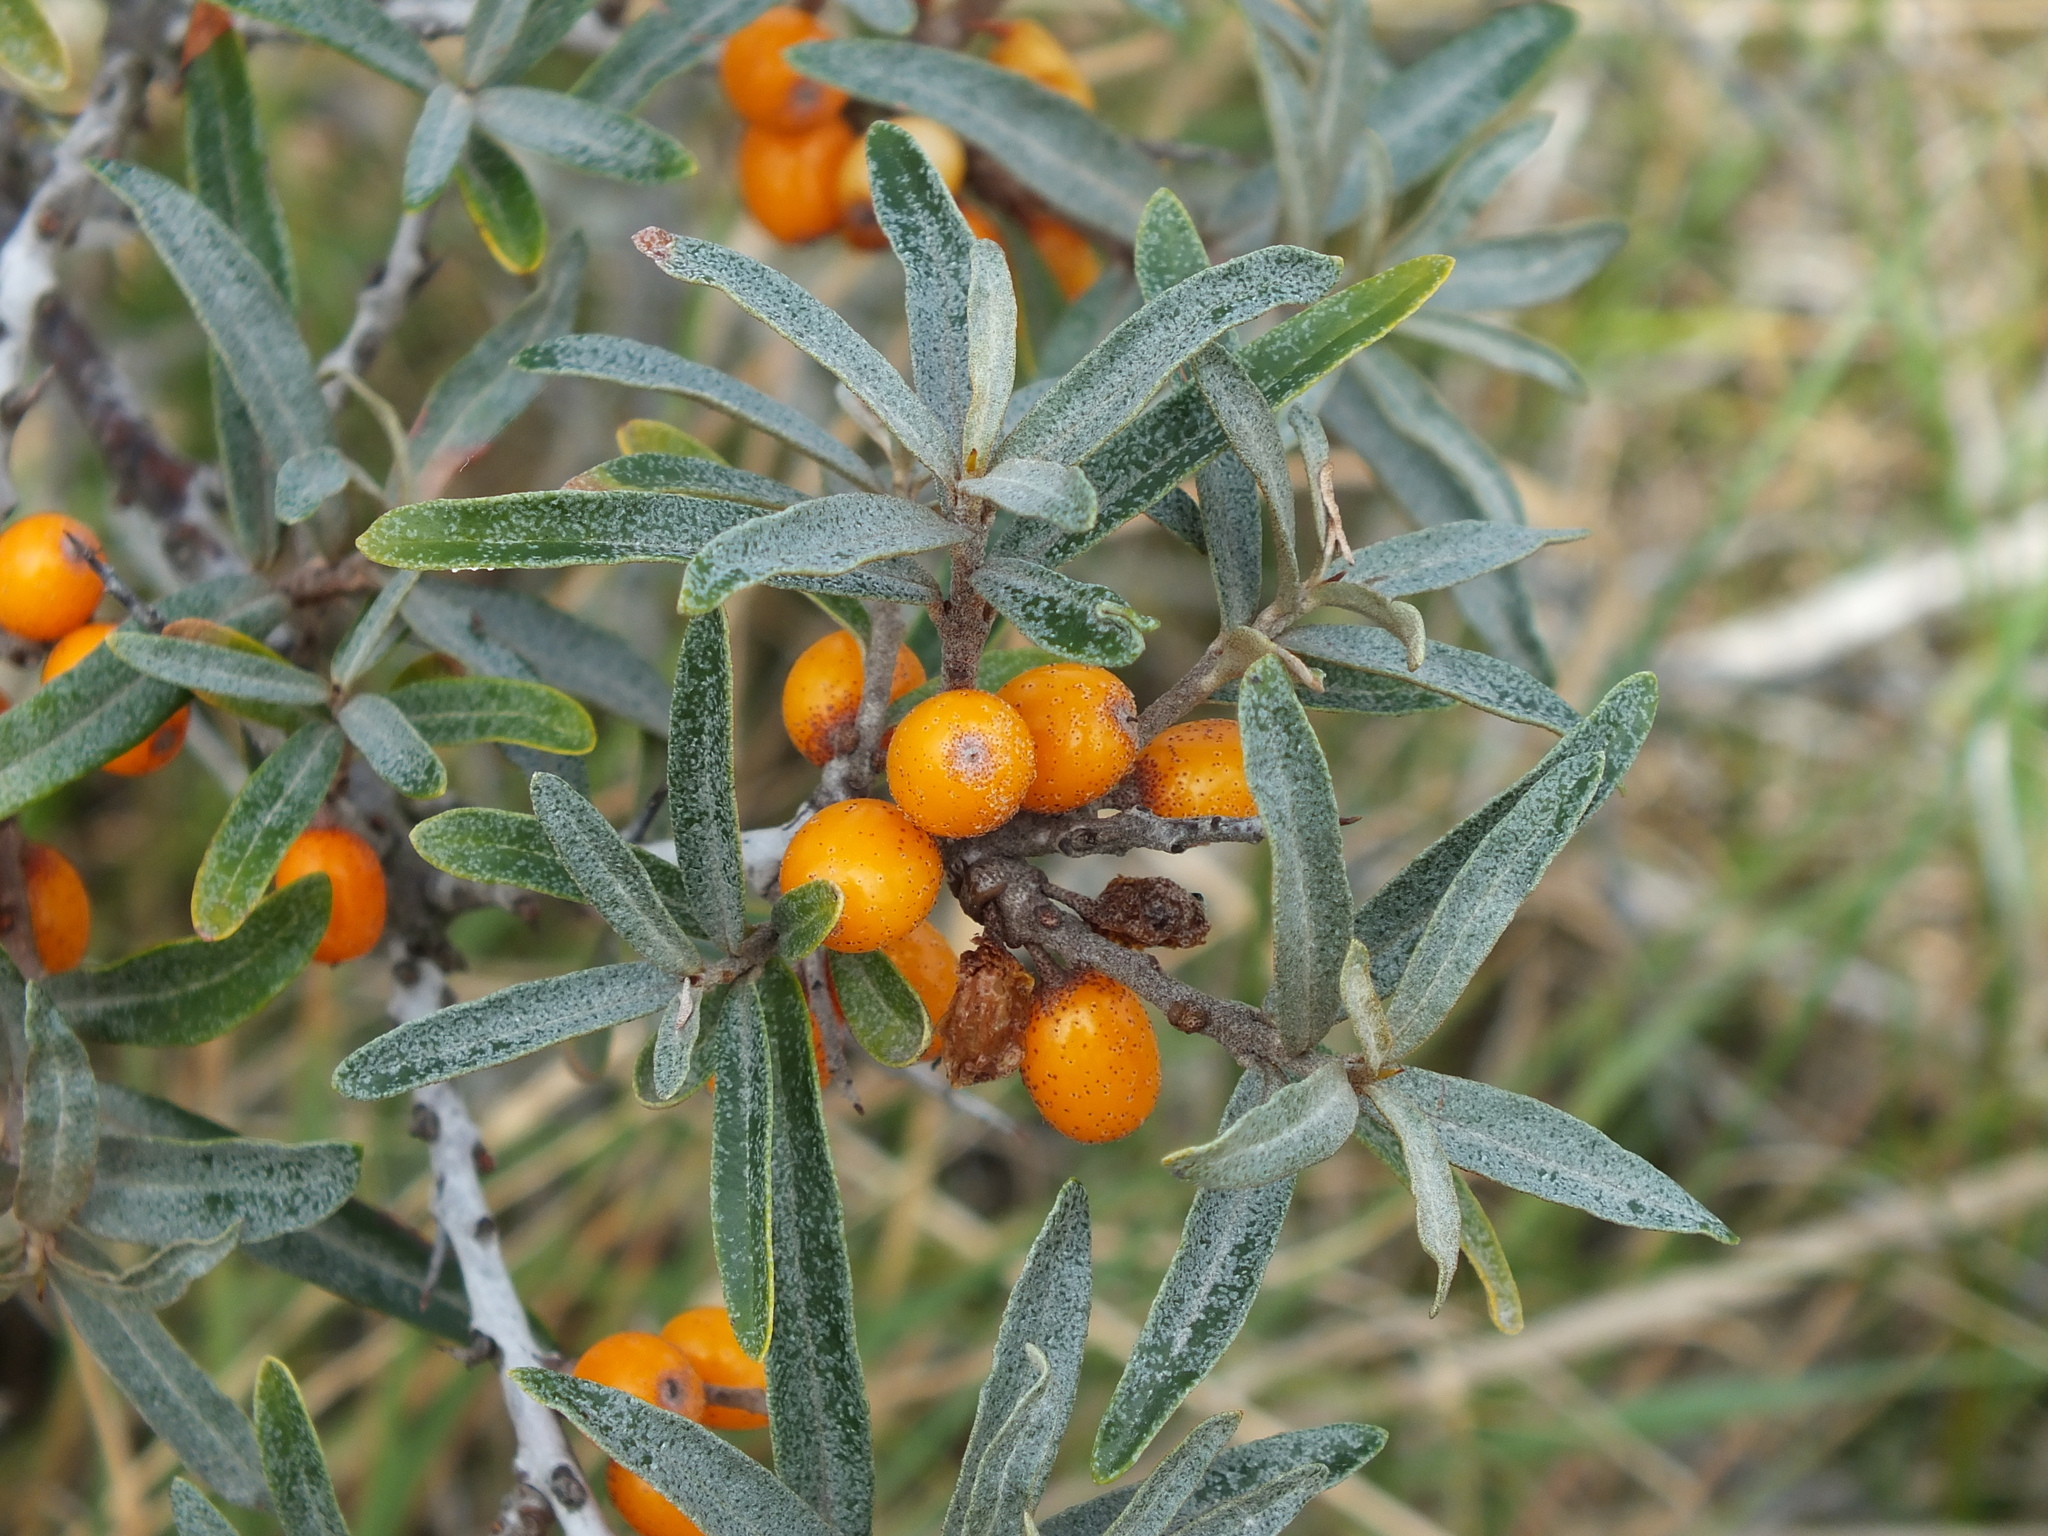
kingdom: Plantae
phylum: Tracheophyta
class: Magnoliopsida
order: Rosales
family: Elaeagnaceae
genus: Hippophae
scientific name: Hippophae rhamnoides
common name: Sea-buckthorn
